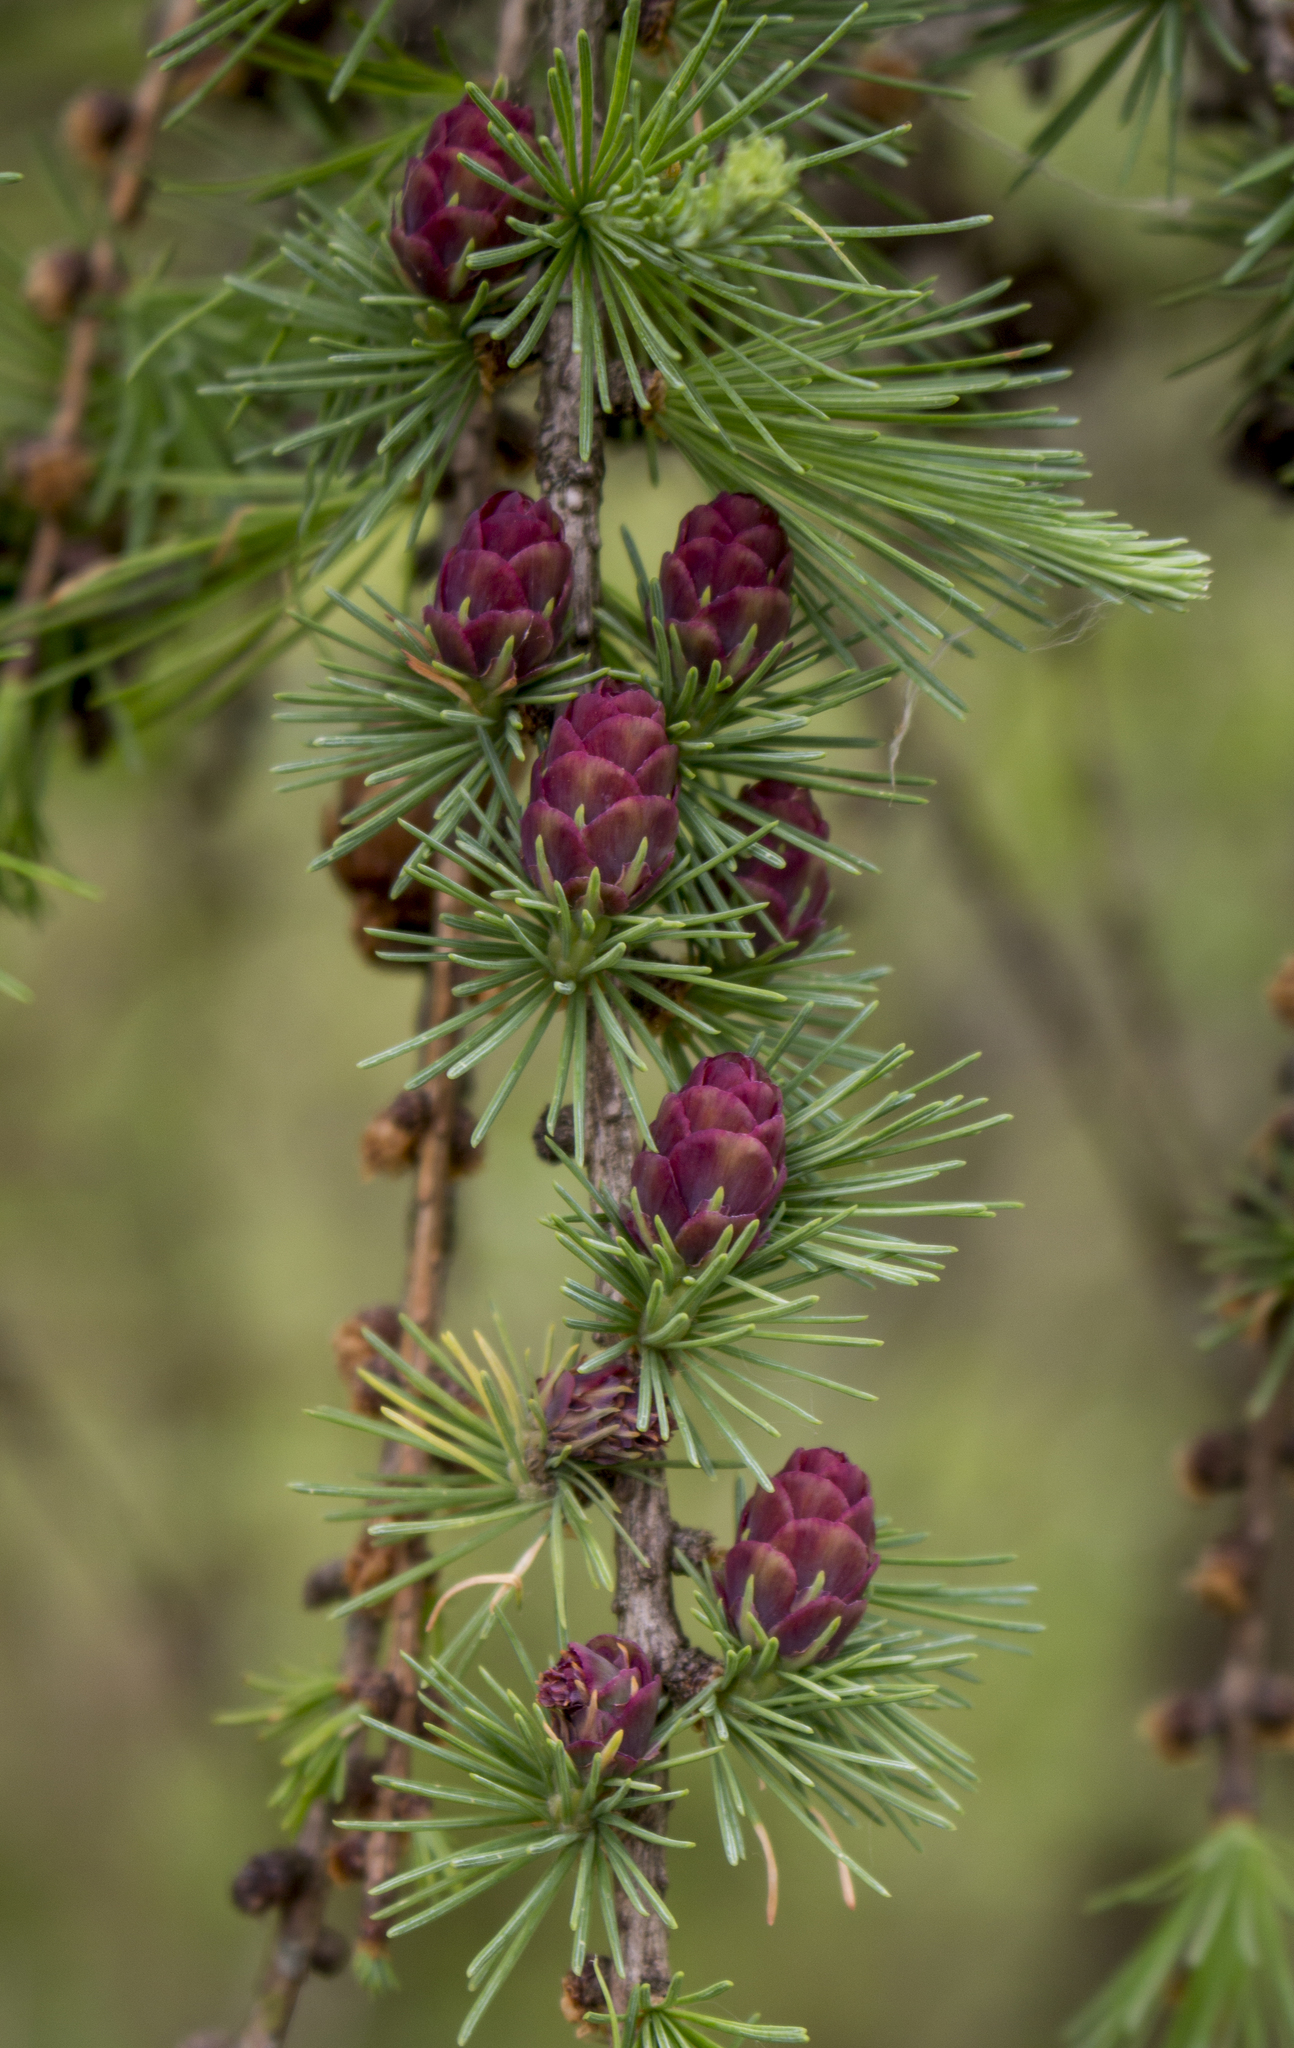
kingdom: Plantae
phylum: Tracheophyta
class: Pinopsida
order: Pinales
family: Pinaceae
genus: Larix
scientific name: Larix laricina
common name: American larch
